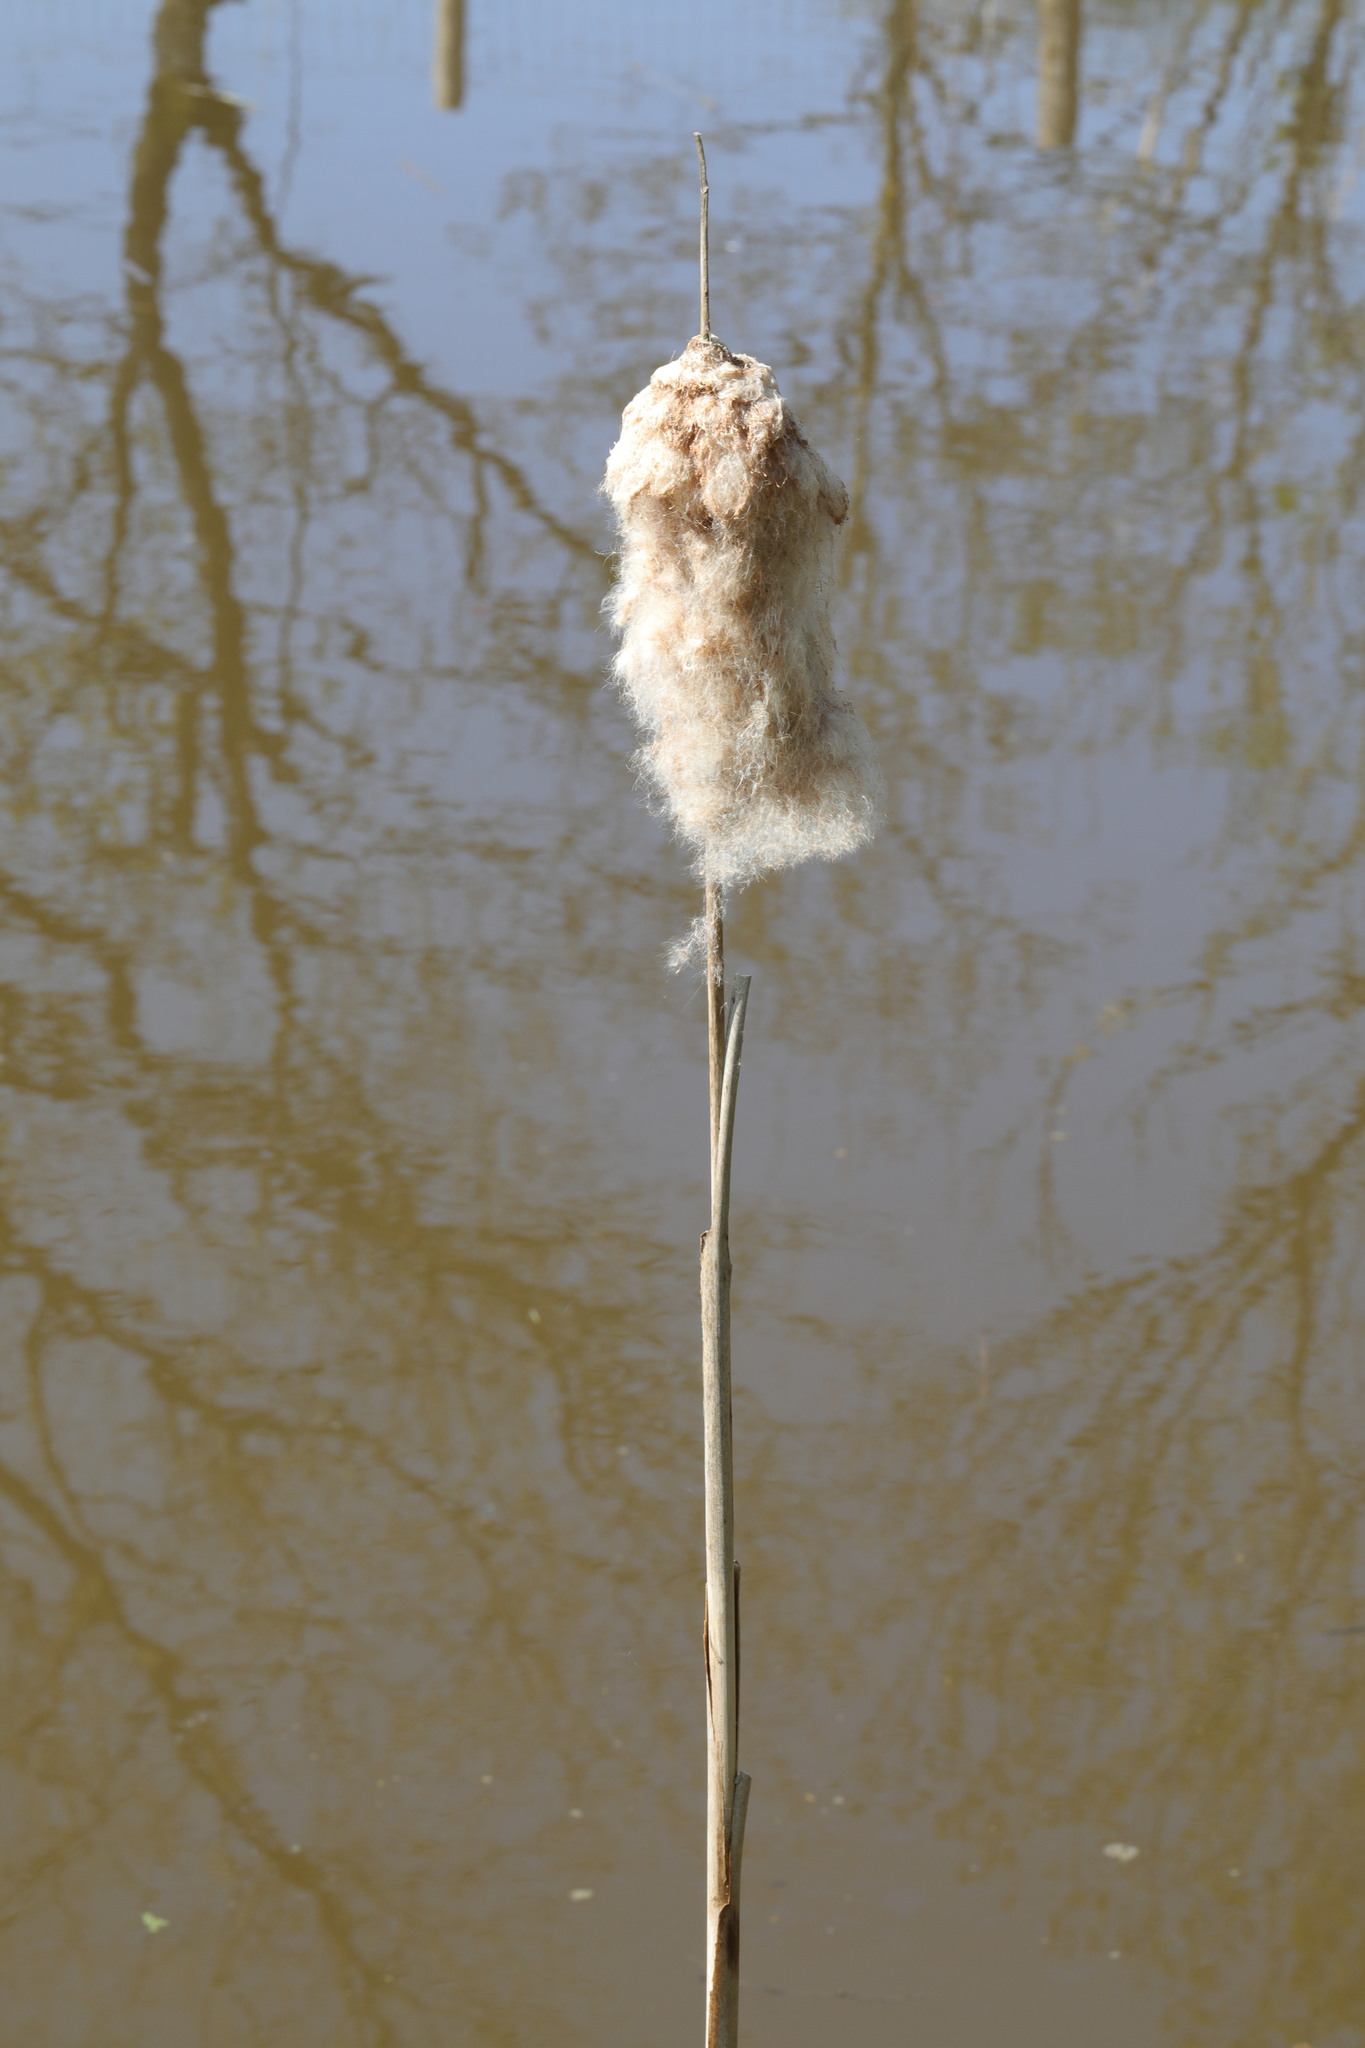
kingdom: Plantae
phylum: Tracheophyta
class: Liliopsida
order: Poales
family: Typhaceae
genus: Typha
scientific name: Typha latifolia
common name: Broadleaf cattail
